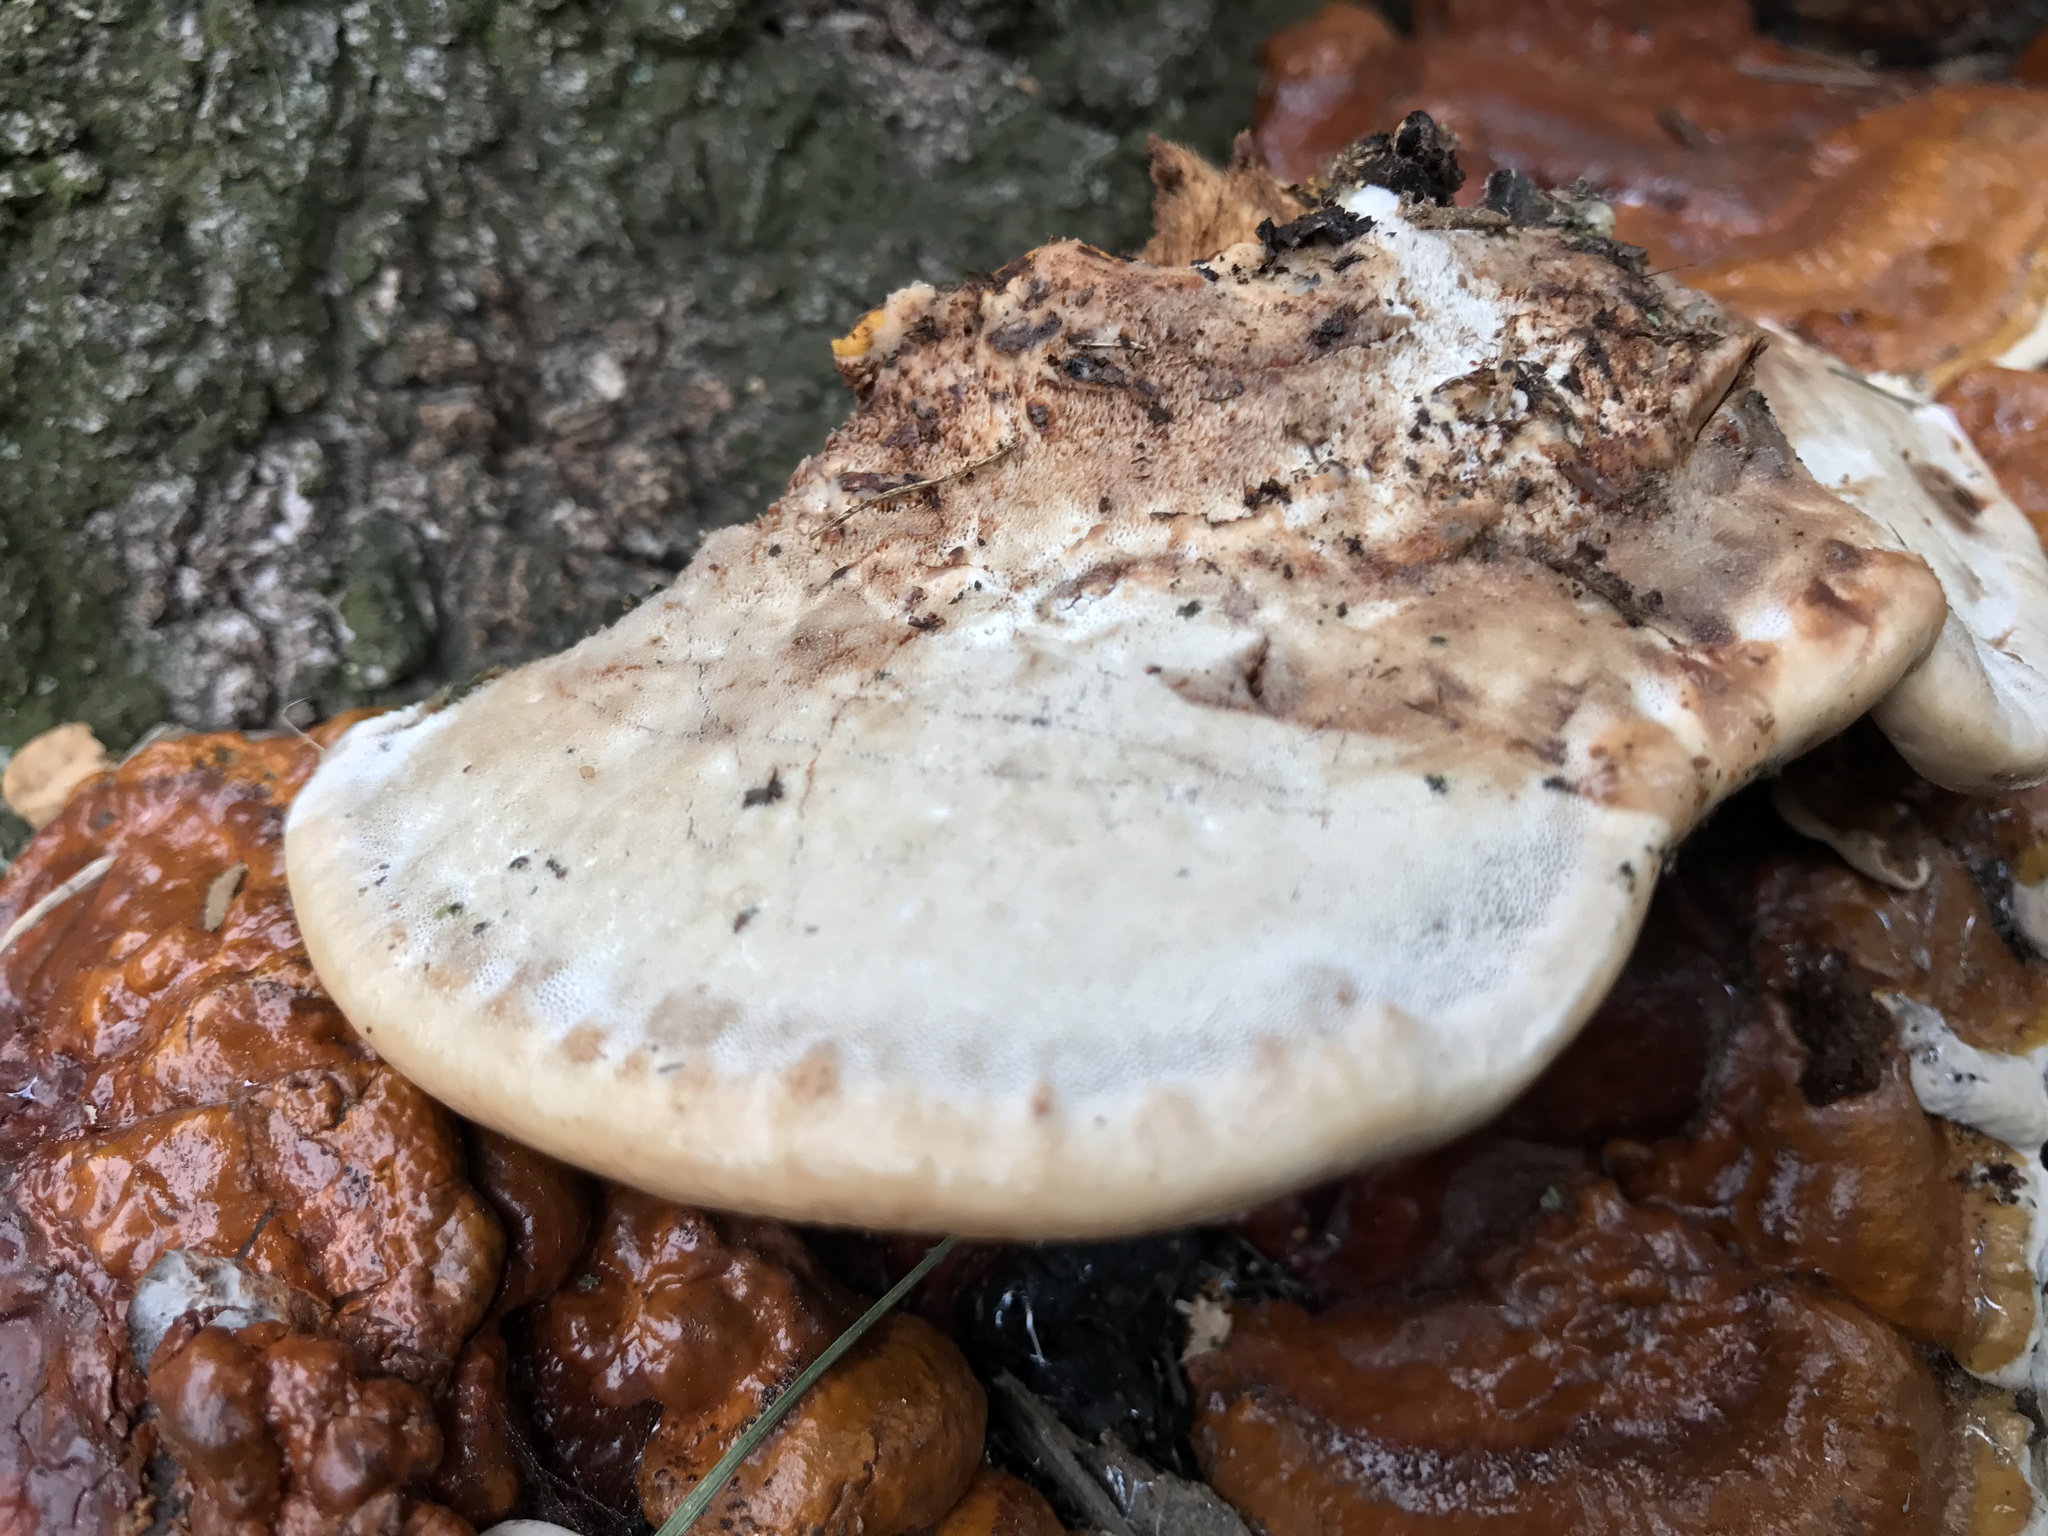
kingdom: Fungi
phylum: Basidiomycota
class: Agaricomycetes
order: Polyporales
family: Polyporaceae
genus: Ganoderma
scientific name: Ganoderma resinaceum
